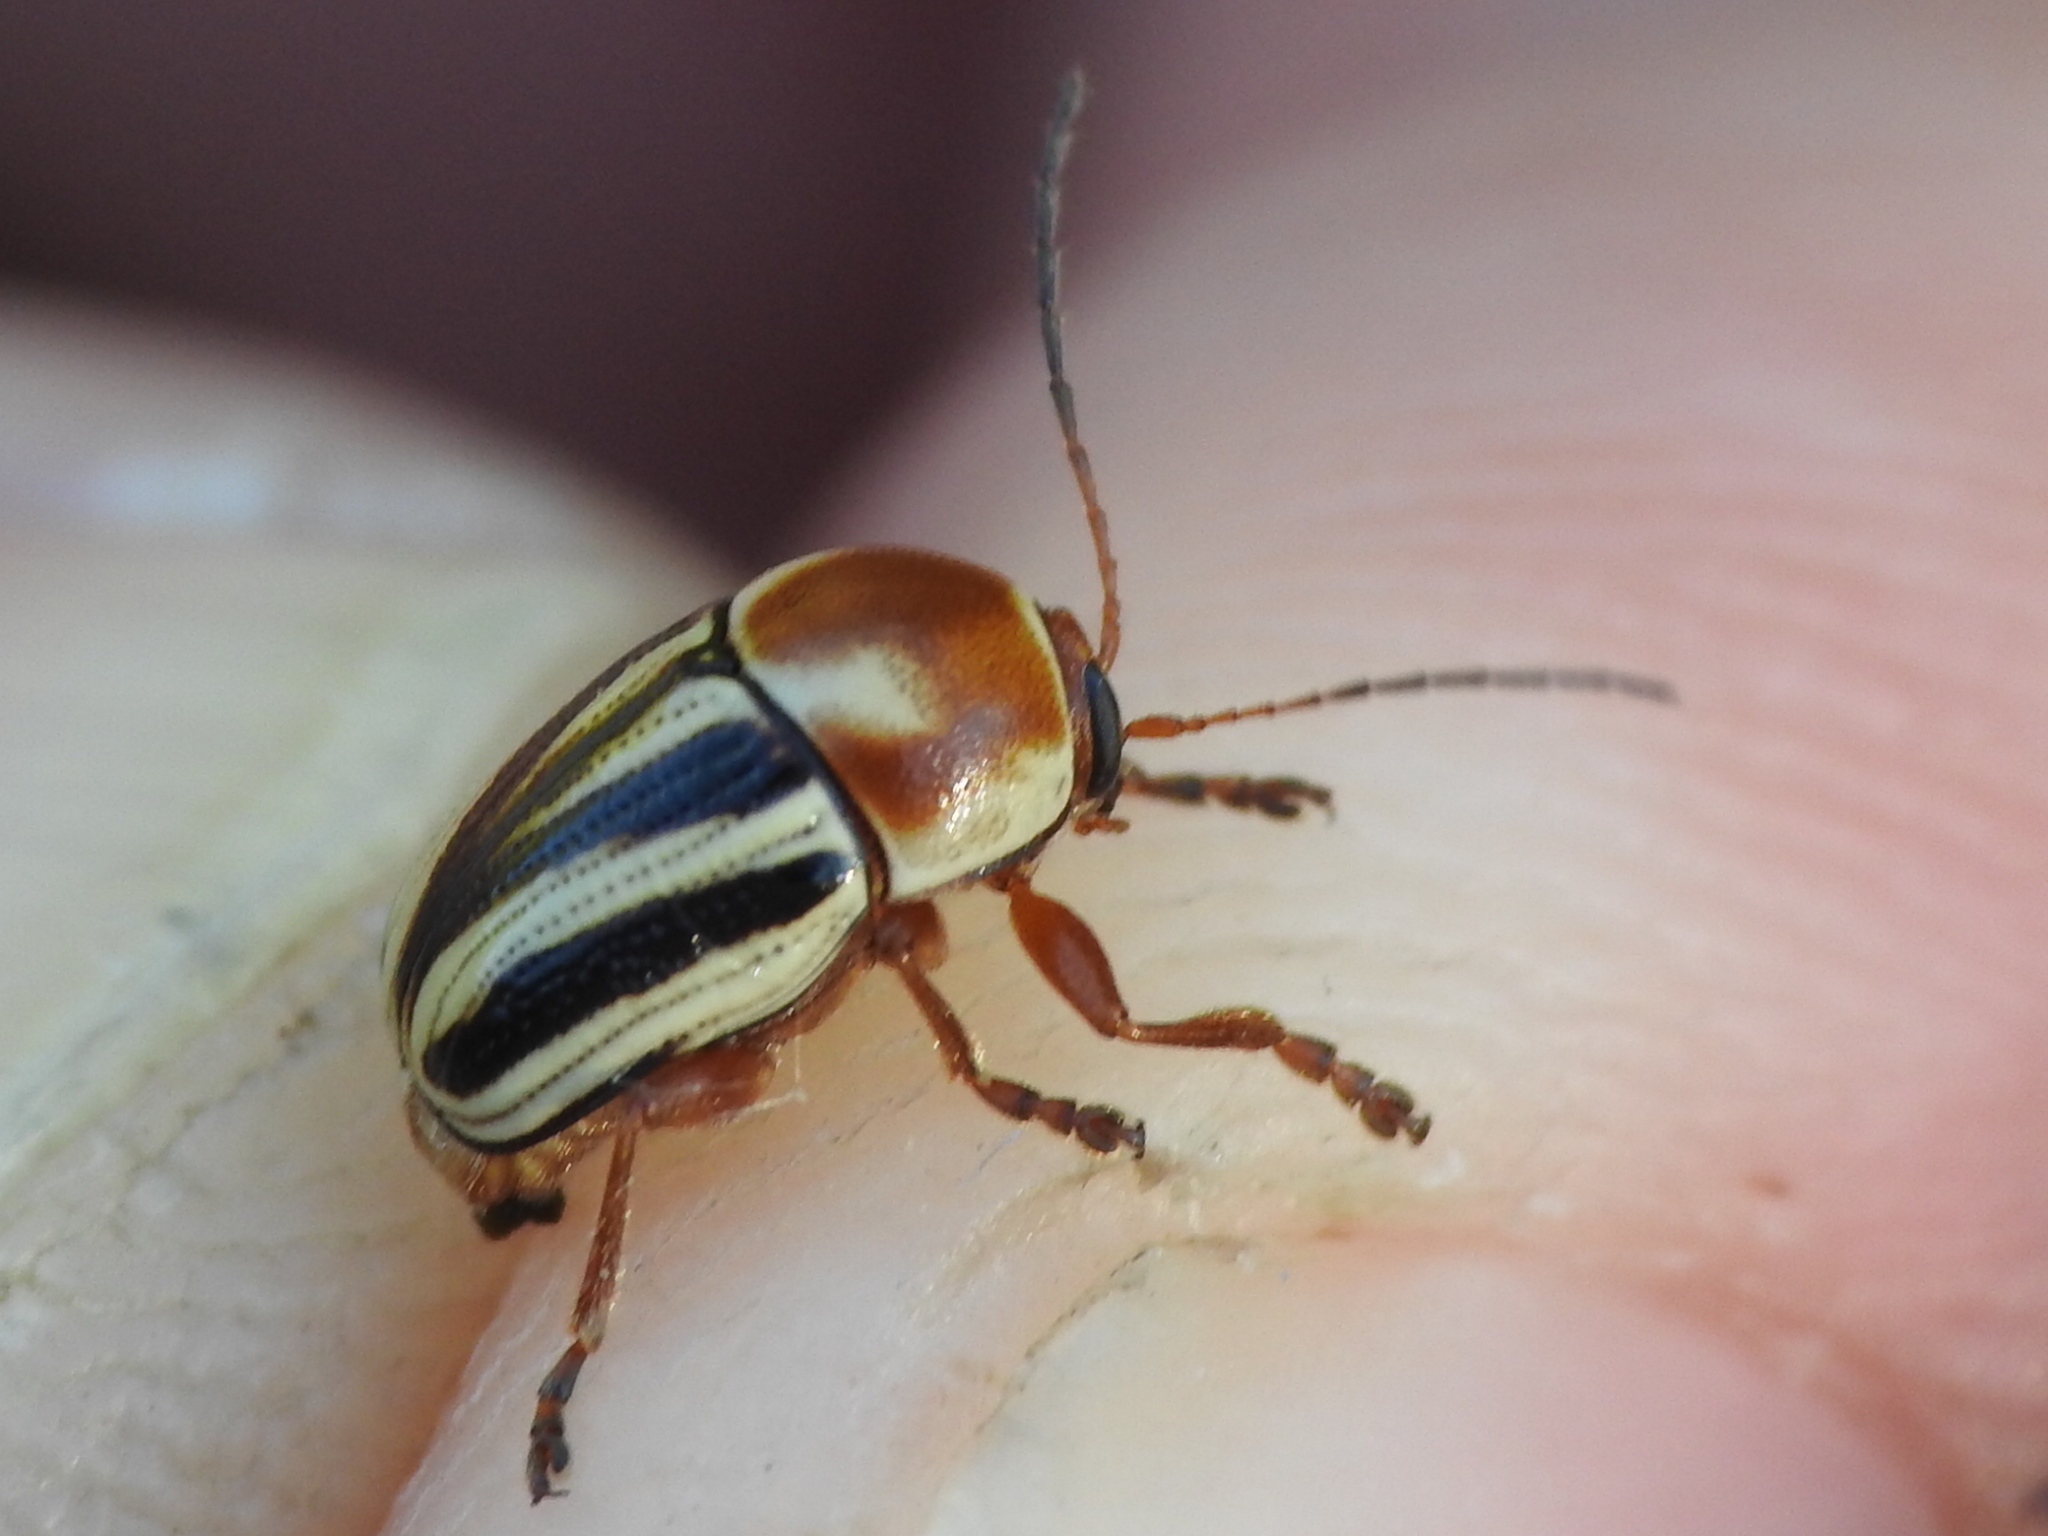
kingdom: Animalia
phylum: Arthropoda
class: Insecta
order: Coleoptera
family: Chrysomelidae
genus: Cryptocephalus
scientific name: Cryptocephalus bispinus
